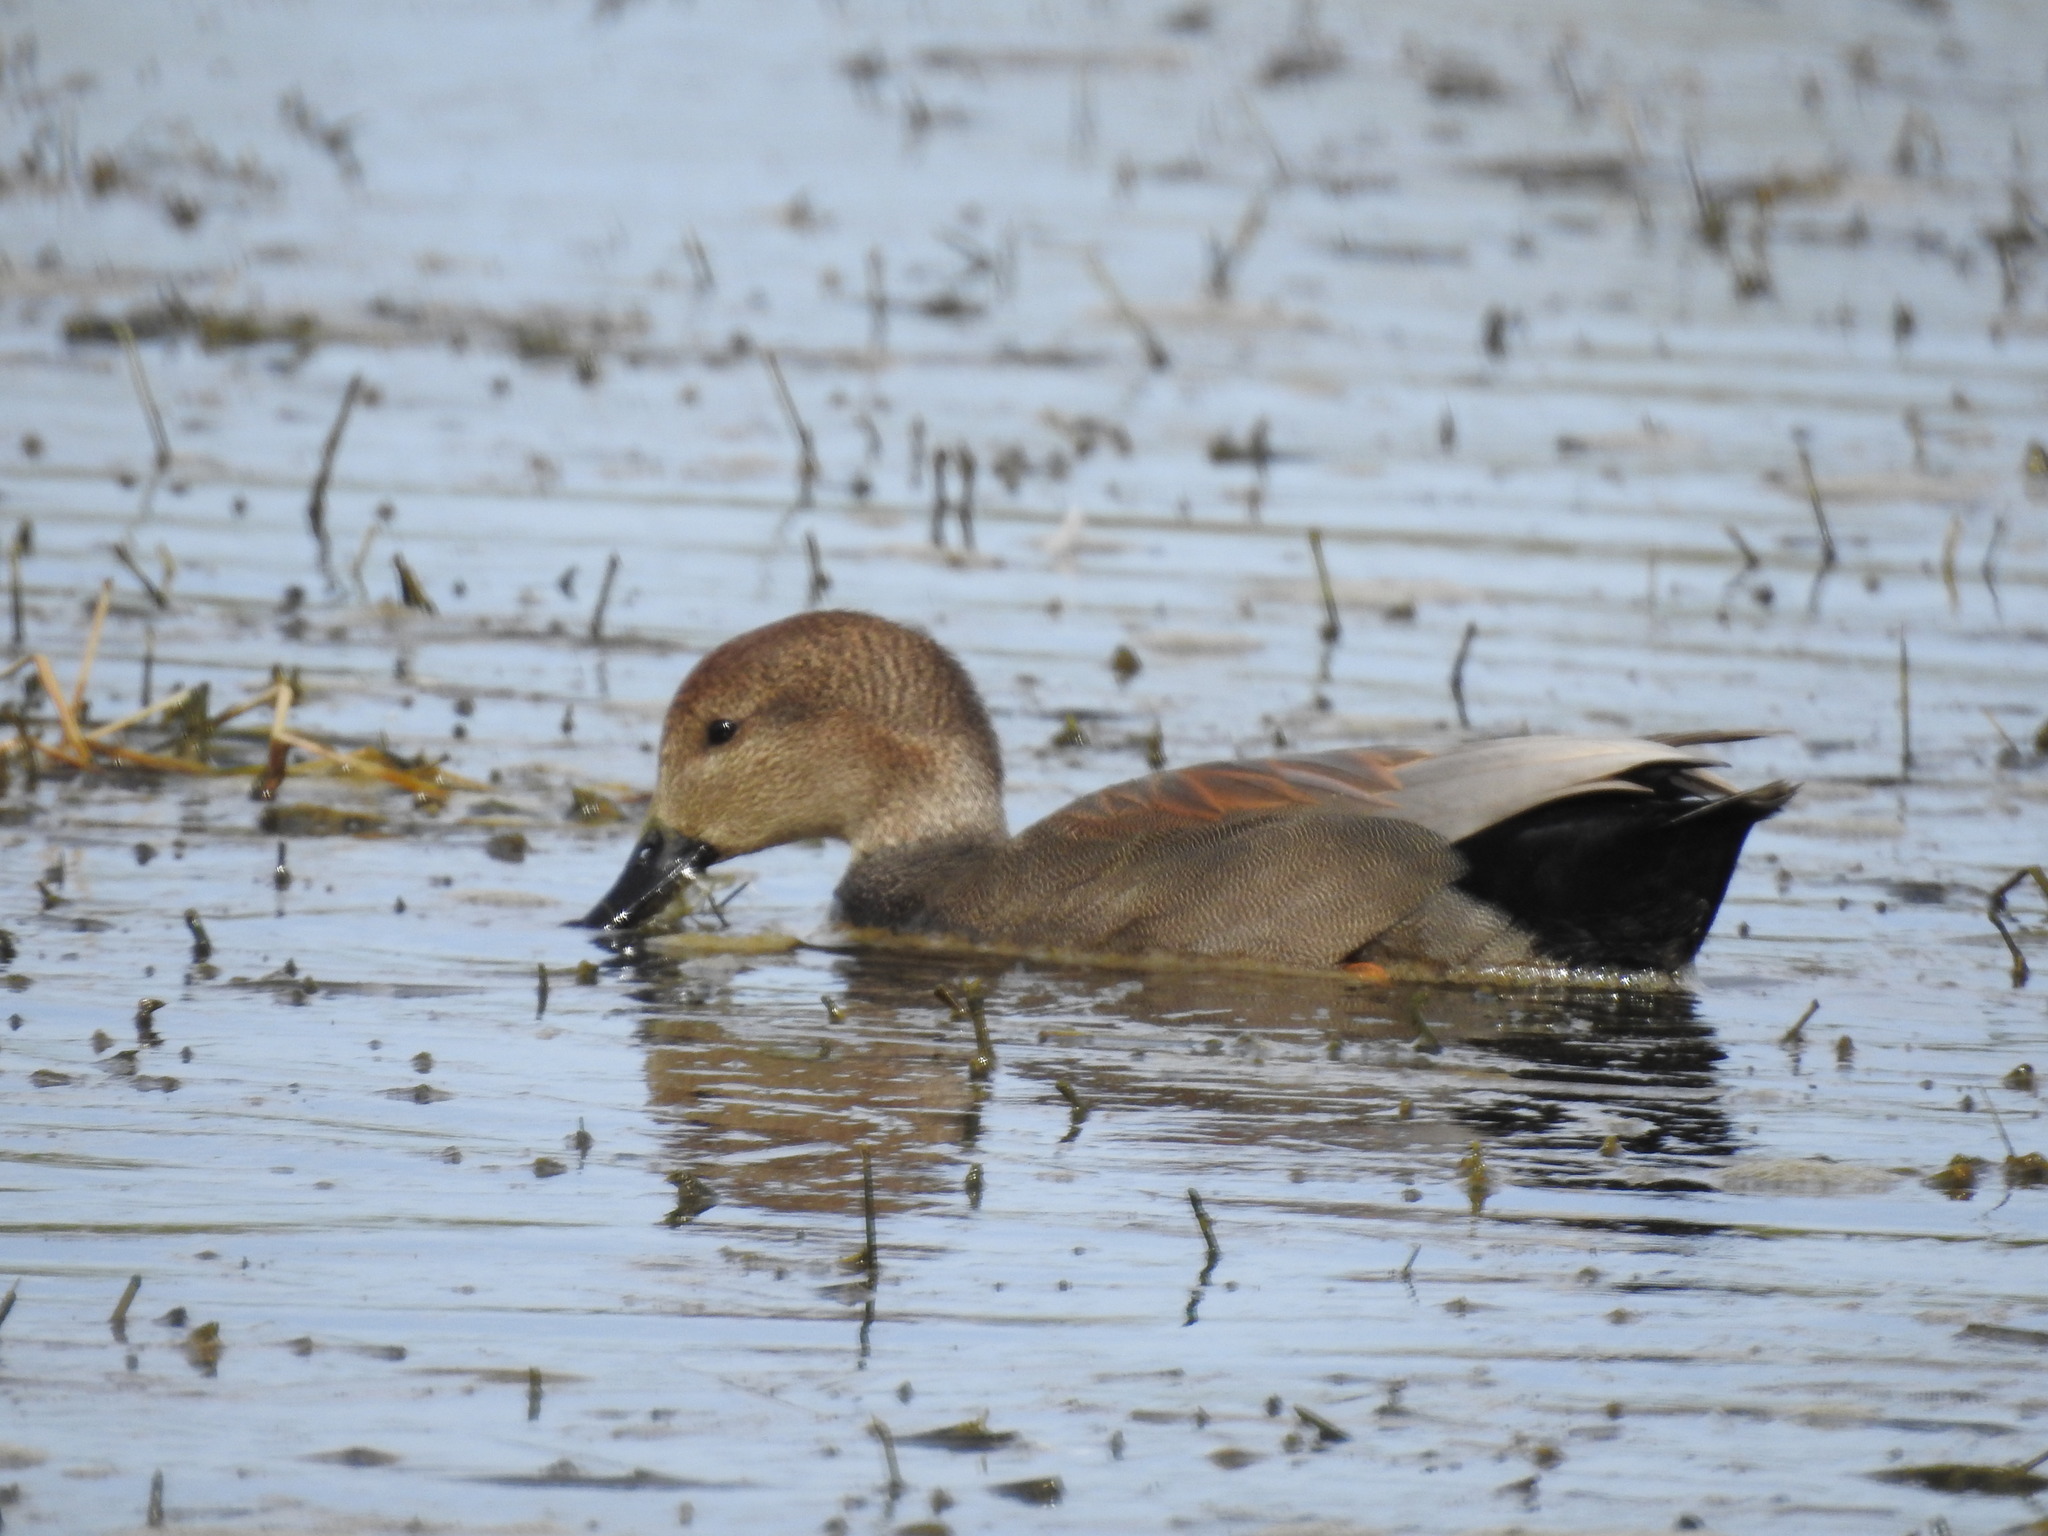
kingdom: Animalia
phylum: Chordata
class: Aves
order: Anseriformes
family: Anatidae
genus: Mareca
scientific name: Mareca strepera
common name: Gadwall
